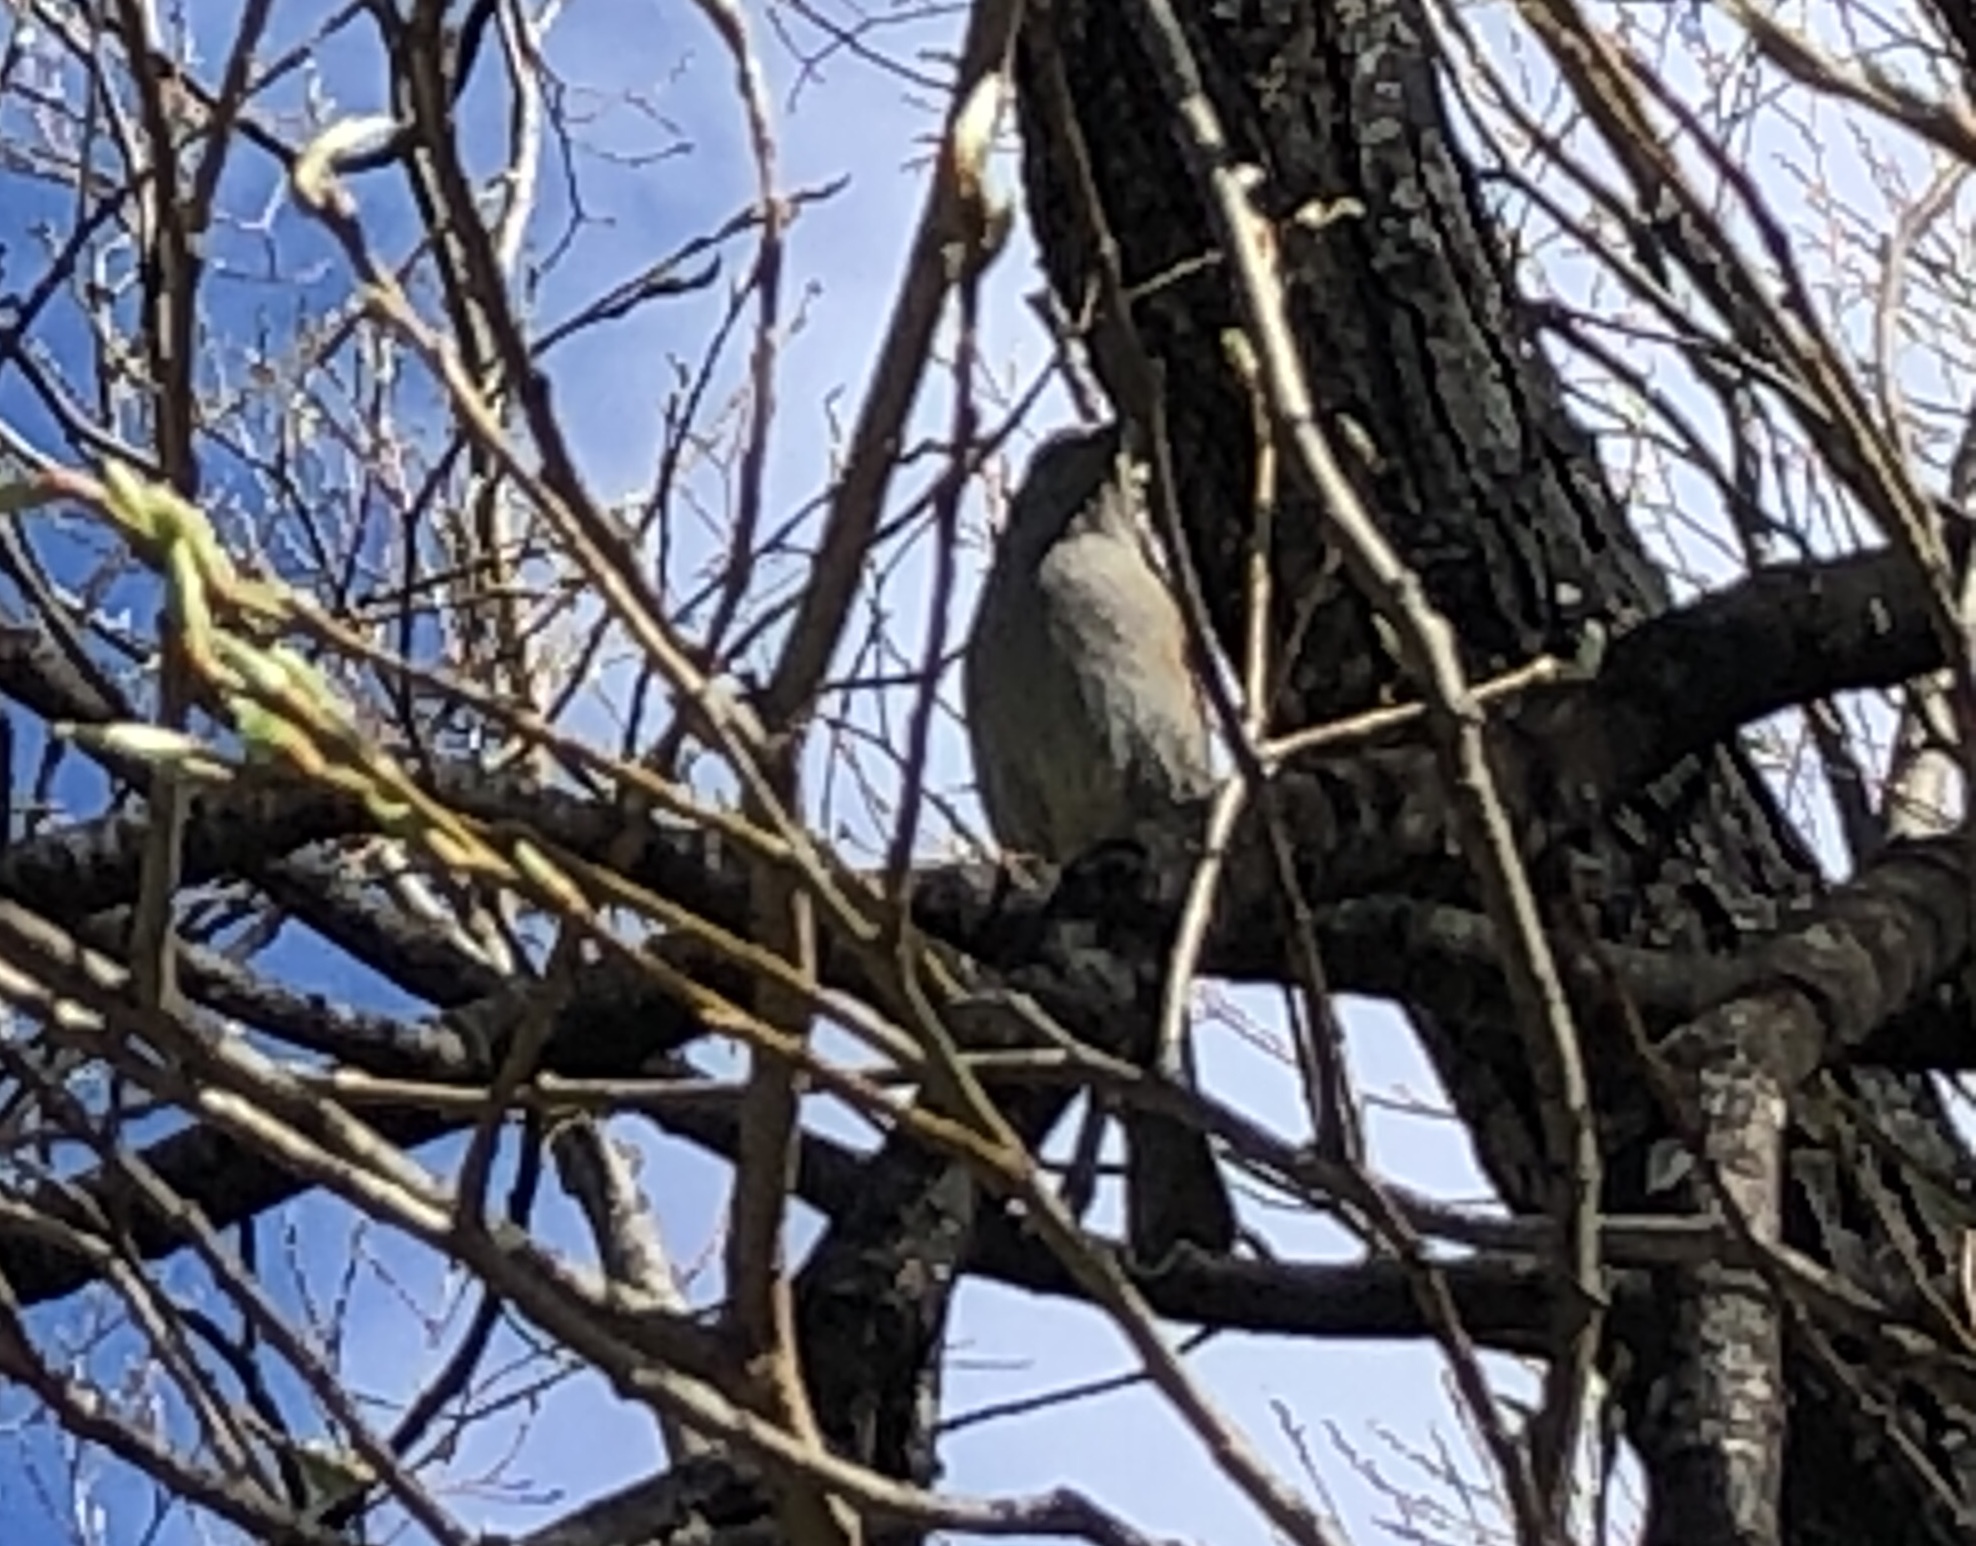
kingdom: Animalia
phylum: Chordata
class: Aves
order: Passeriformes
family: Prunellidae
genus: Prunella
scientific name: Prunella modularis
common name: Dunnock
